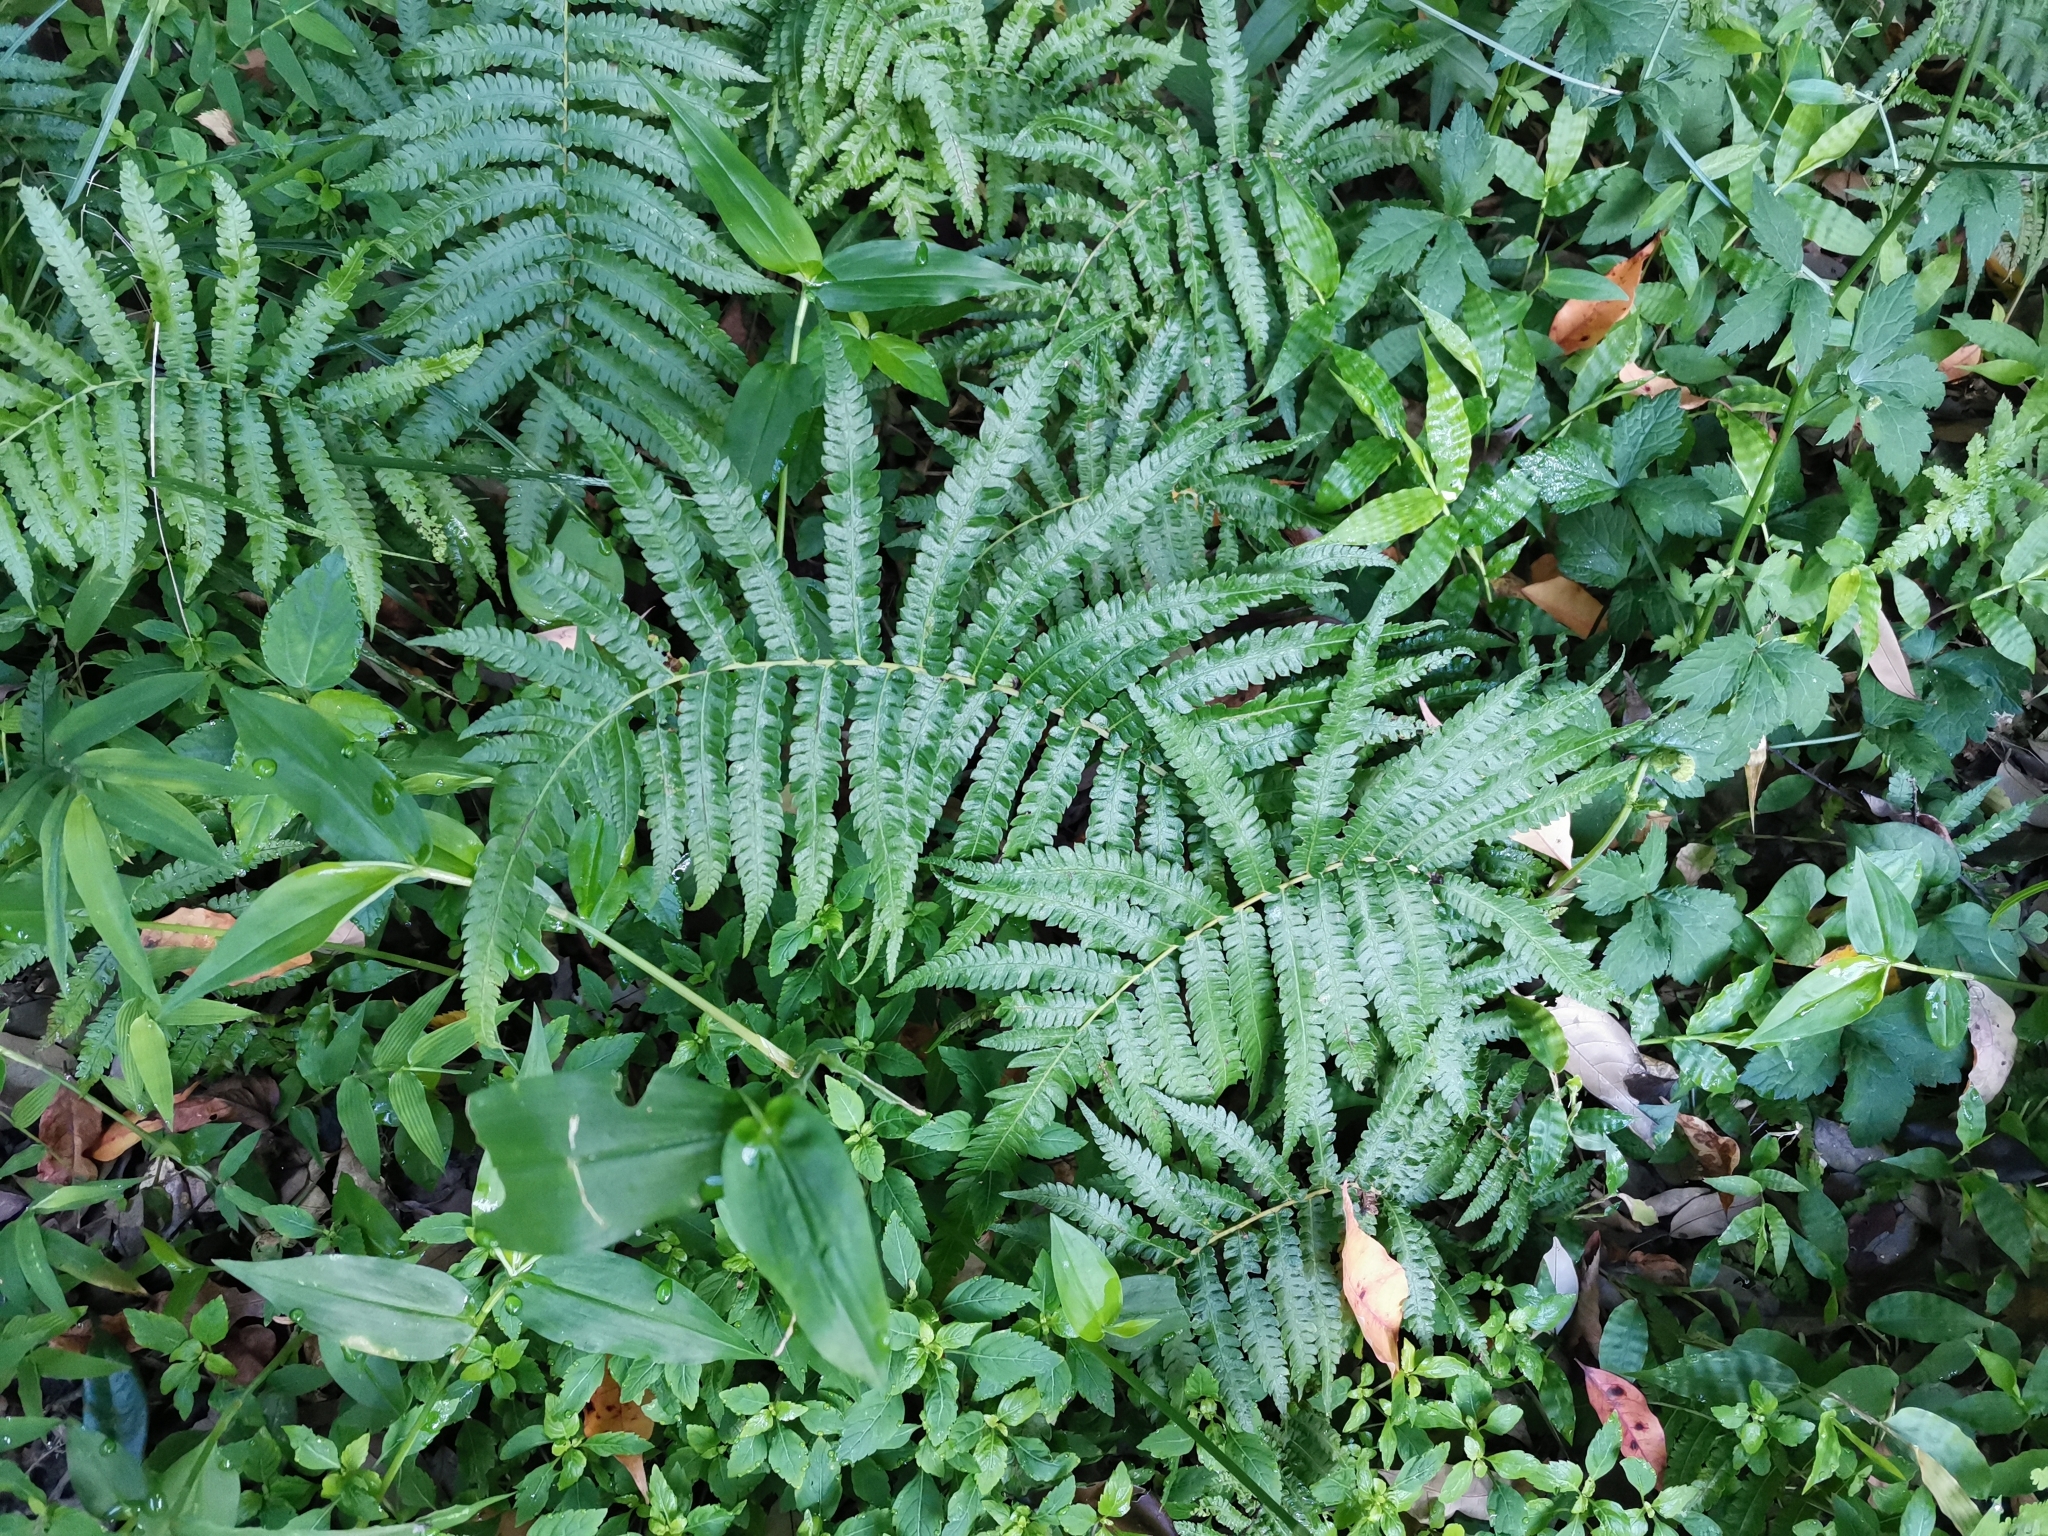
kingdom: Plantae
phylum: Tracheophyta
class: Polypodiopsida
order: Polypodiales
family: Thelypteridaceae
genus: Christella
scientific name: Christella acuminata
